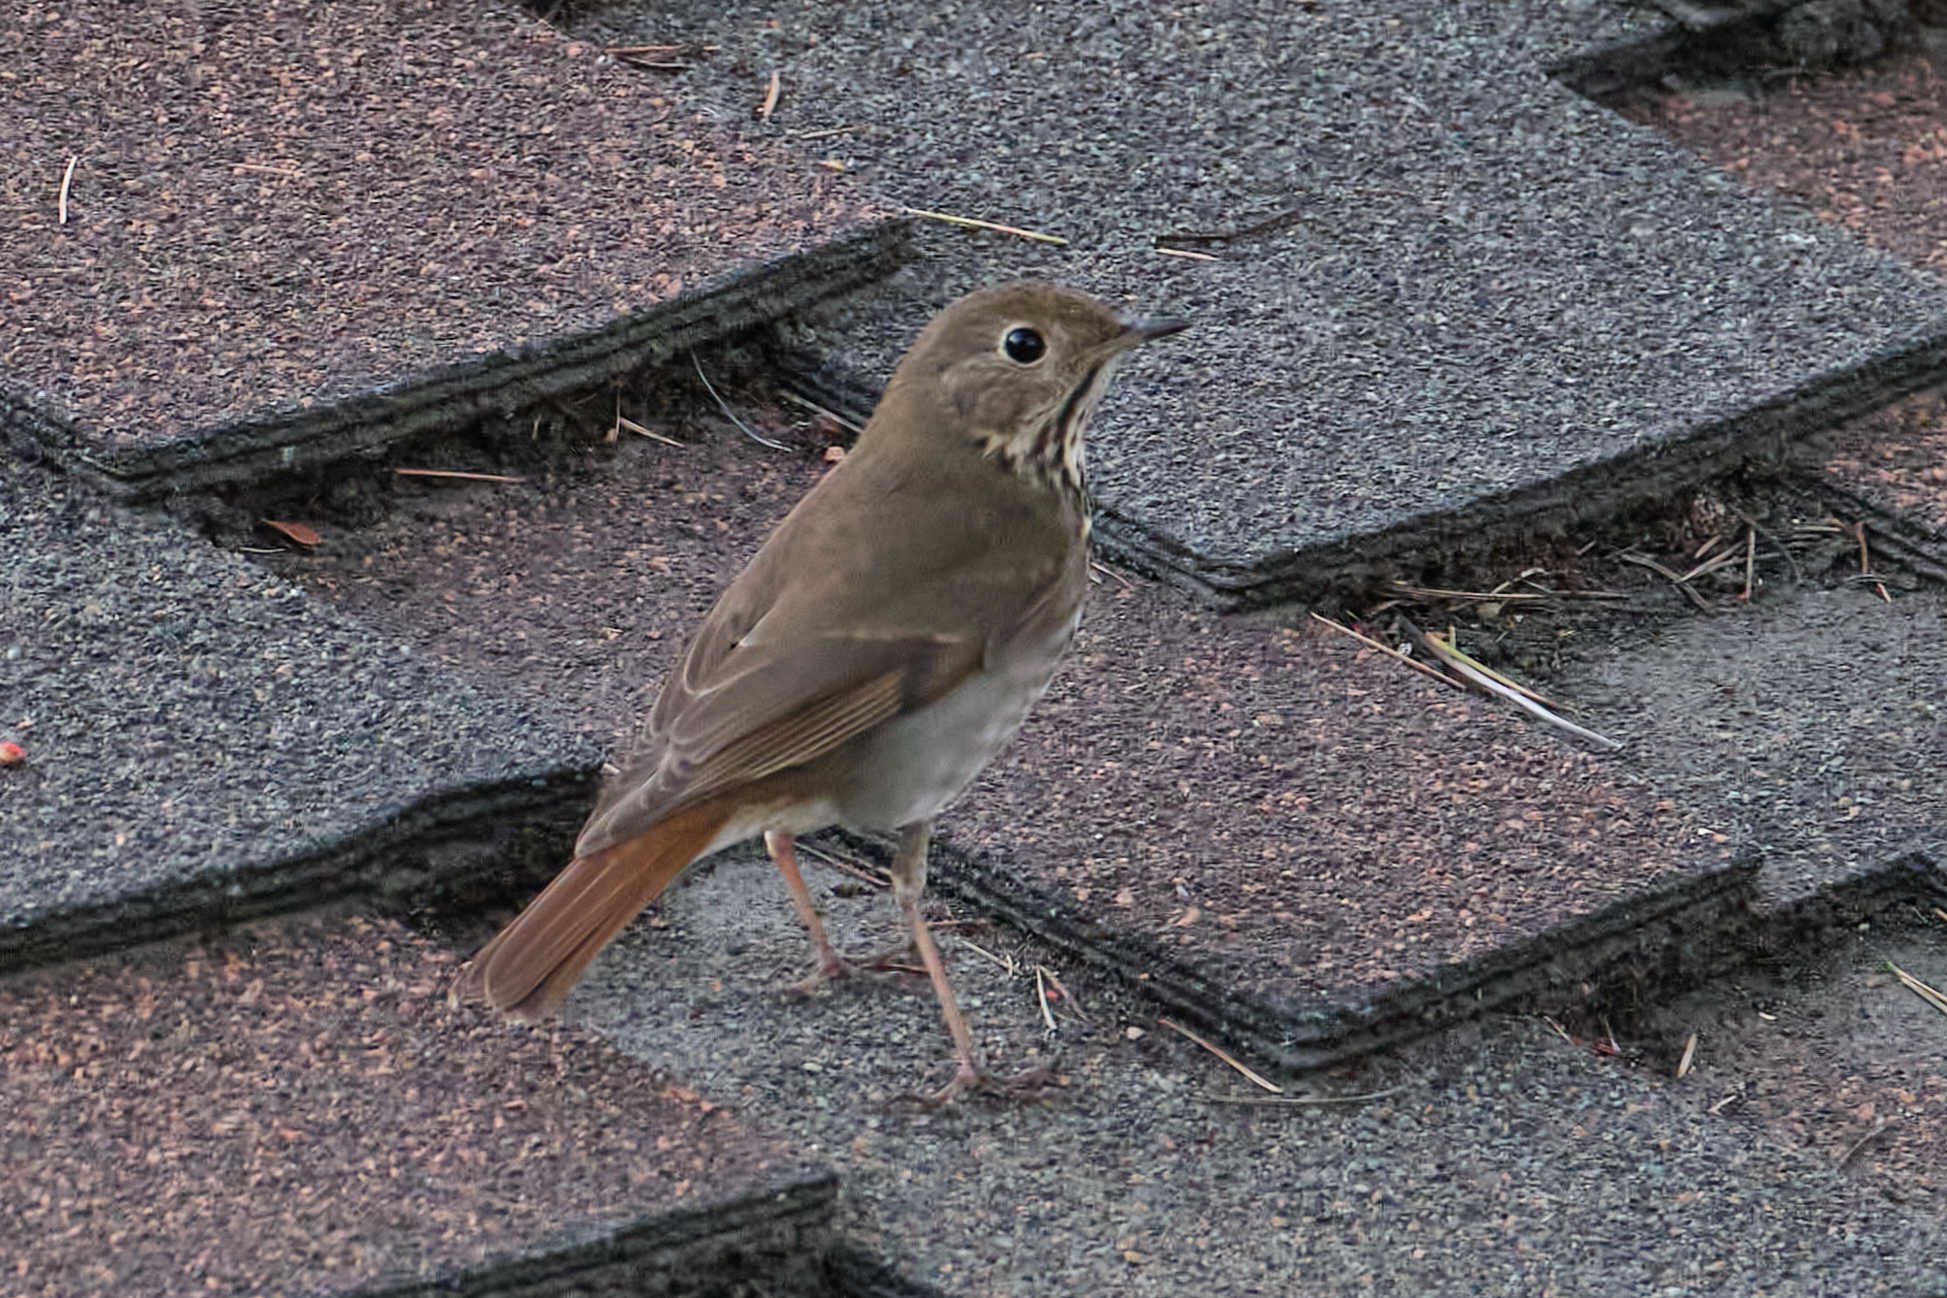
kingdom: Animalia
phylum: Chordata
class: Aves
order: Passeriformes
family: Turdidae
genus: Catharus
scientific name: Catharus guttatus
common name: Hermit thrush
